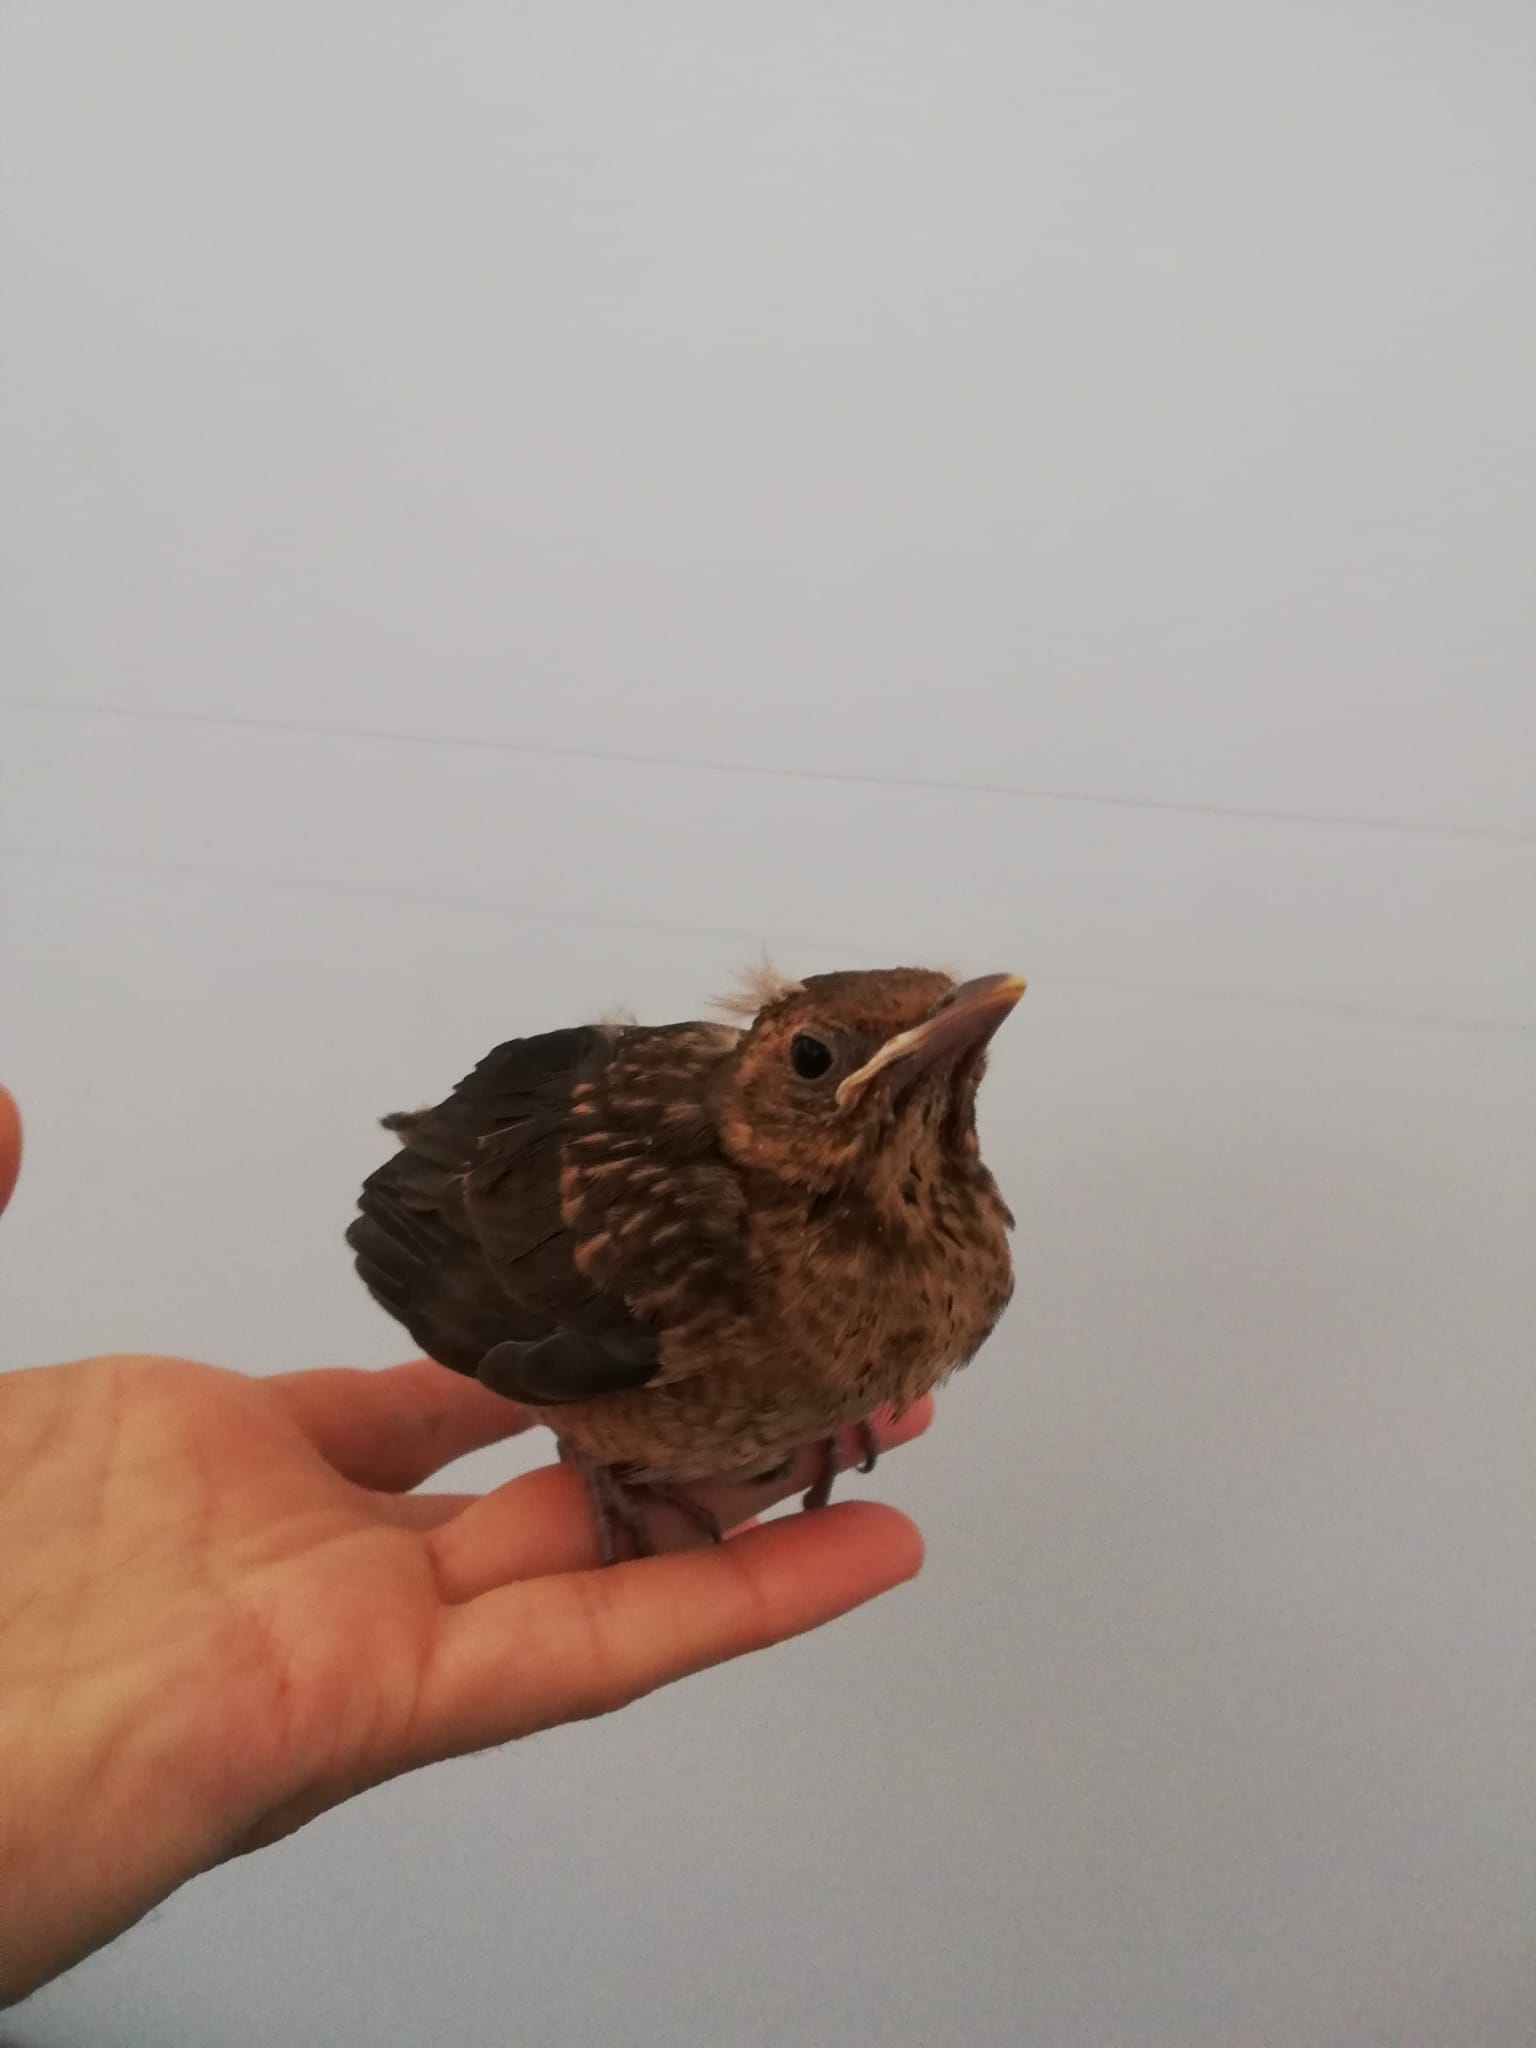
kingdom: Animalia
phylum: Chordata
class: Aves
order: Passeriformes
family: Turdidae
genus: Turdus
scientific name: Turdus merula
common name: Common blackbird
